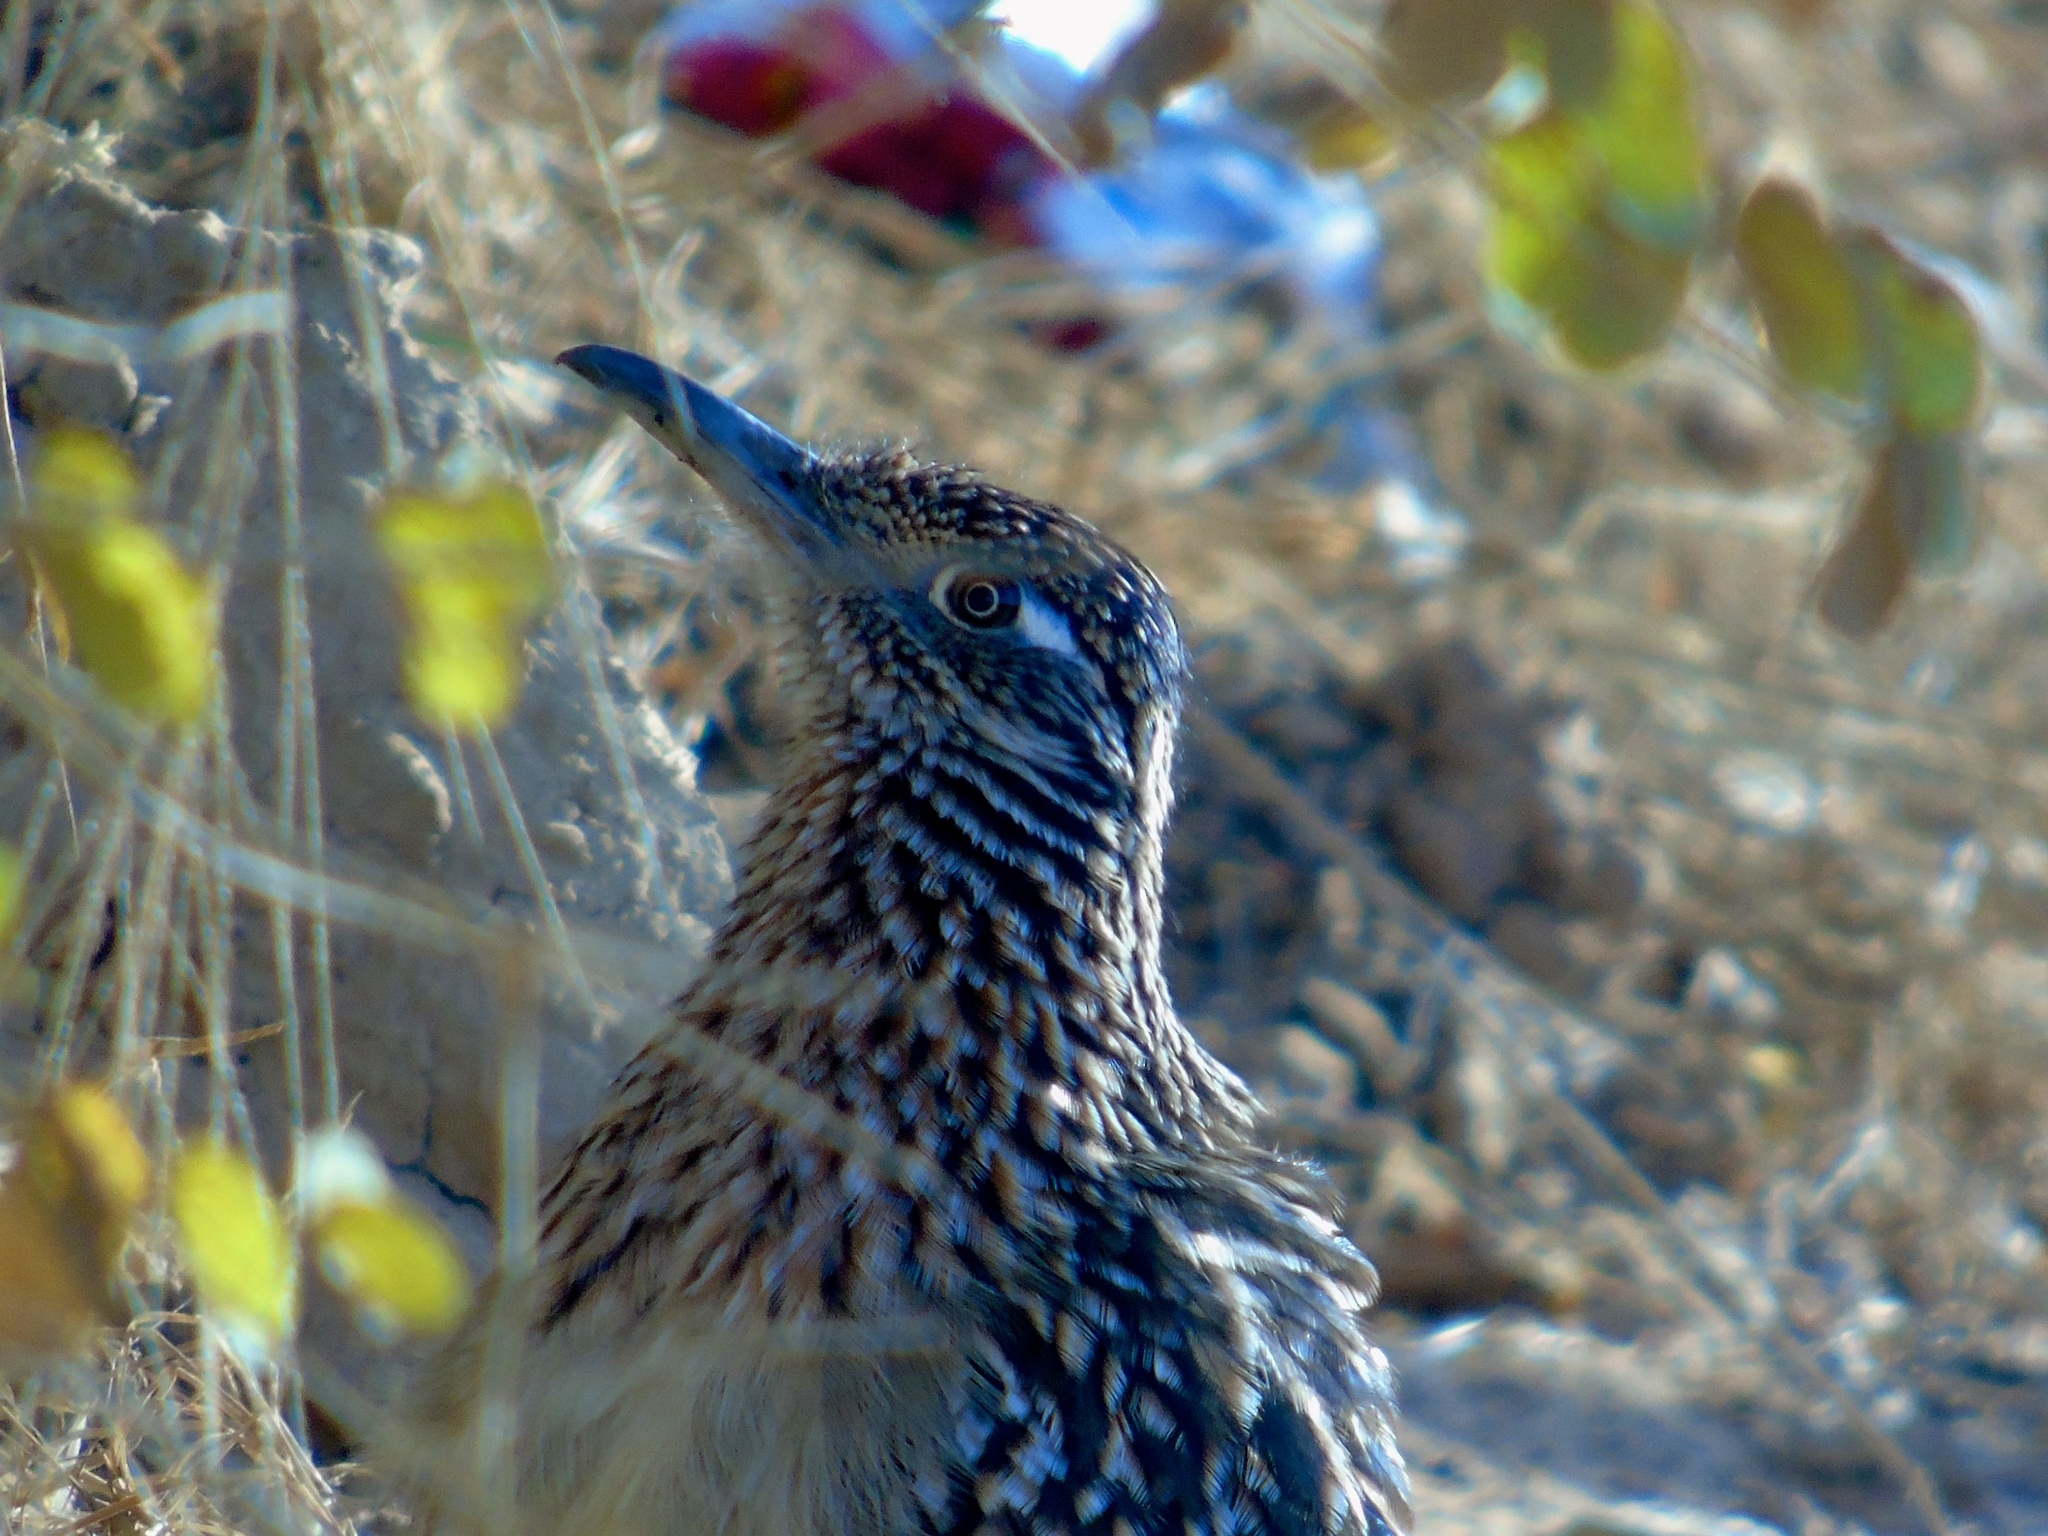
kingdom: Animalia
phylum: Chordata
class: Aves
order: Cuculiformes
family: Cuculidae
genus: Geococcyx
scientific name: Geococcyx californianus
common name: Greater roadrunner
